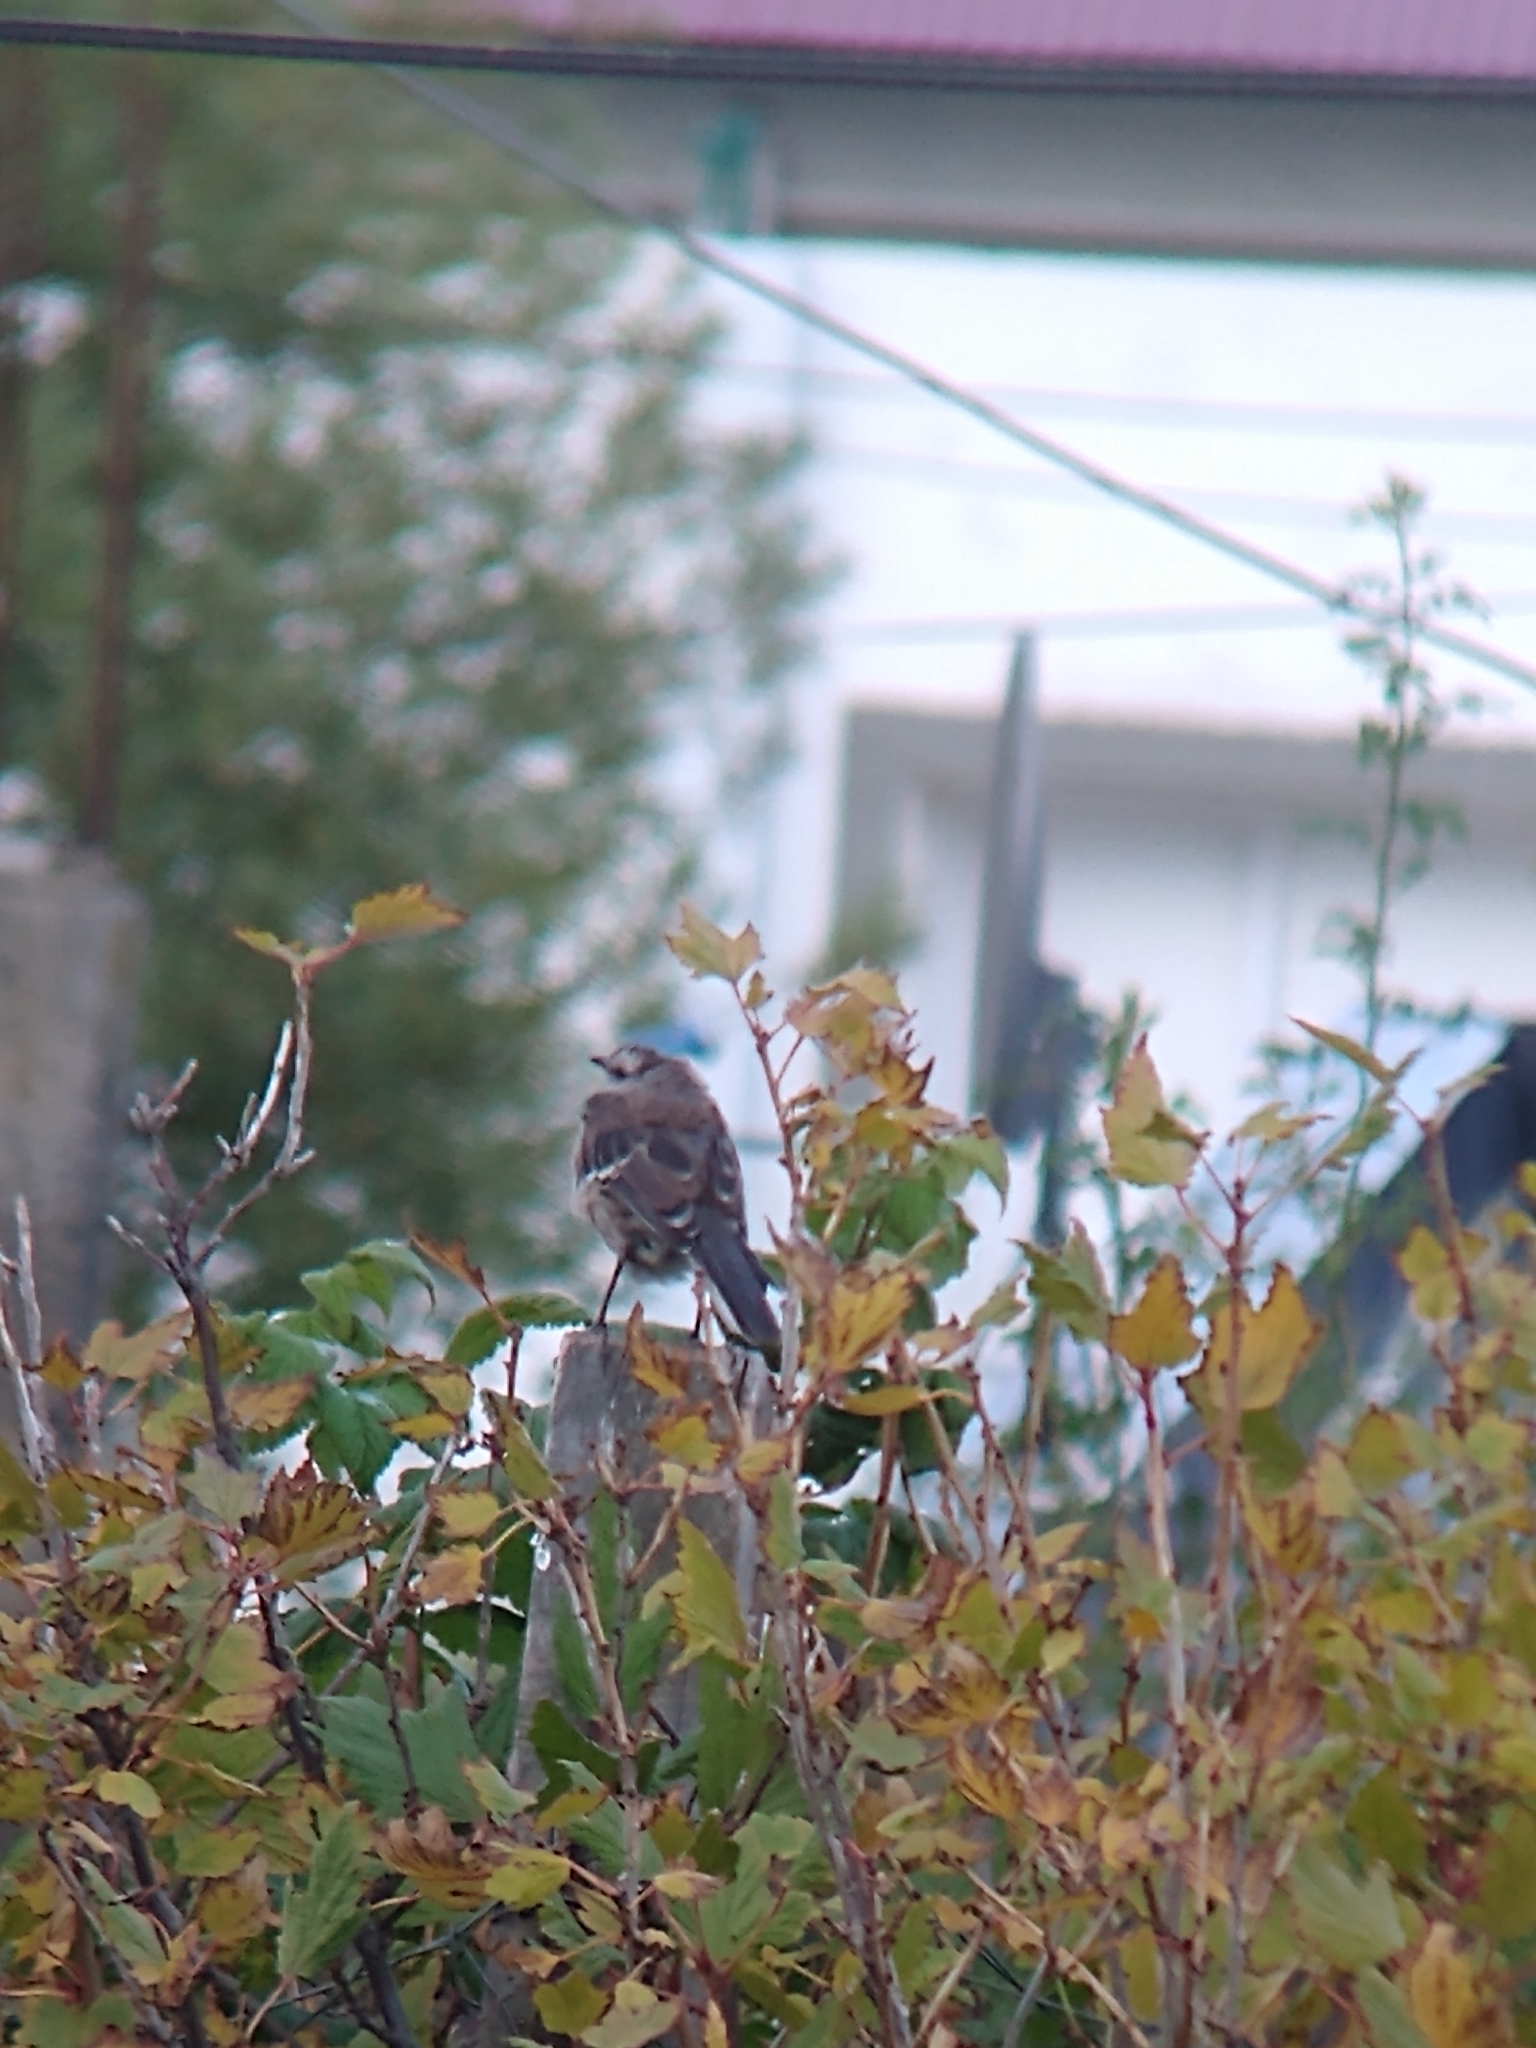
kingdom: Animalia
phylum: Chordata
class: Aves
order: Passeriformes
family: Mimidae
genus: Mimus
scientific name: Mimus patagonicus
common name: Patagonian mockingbird
